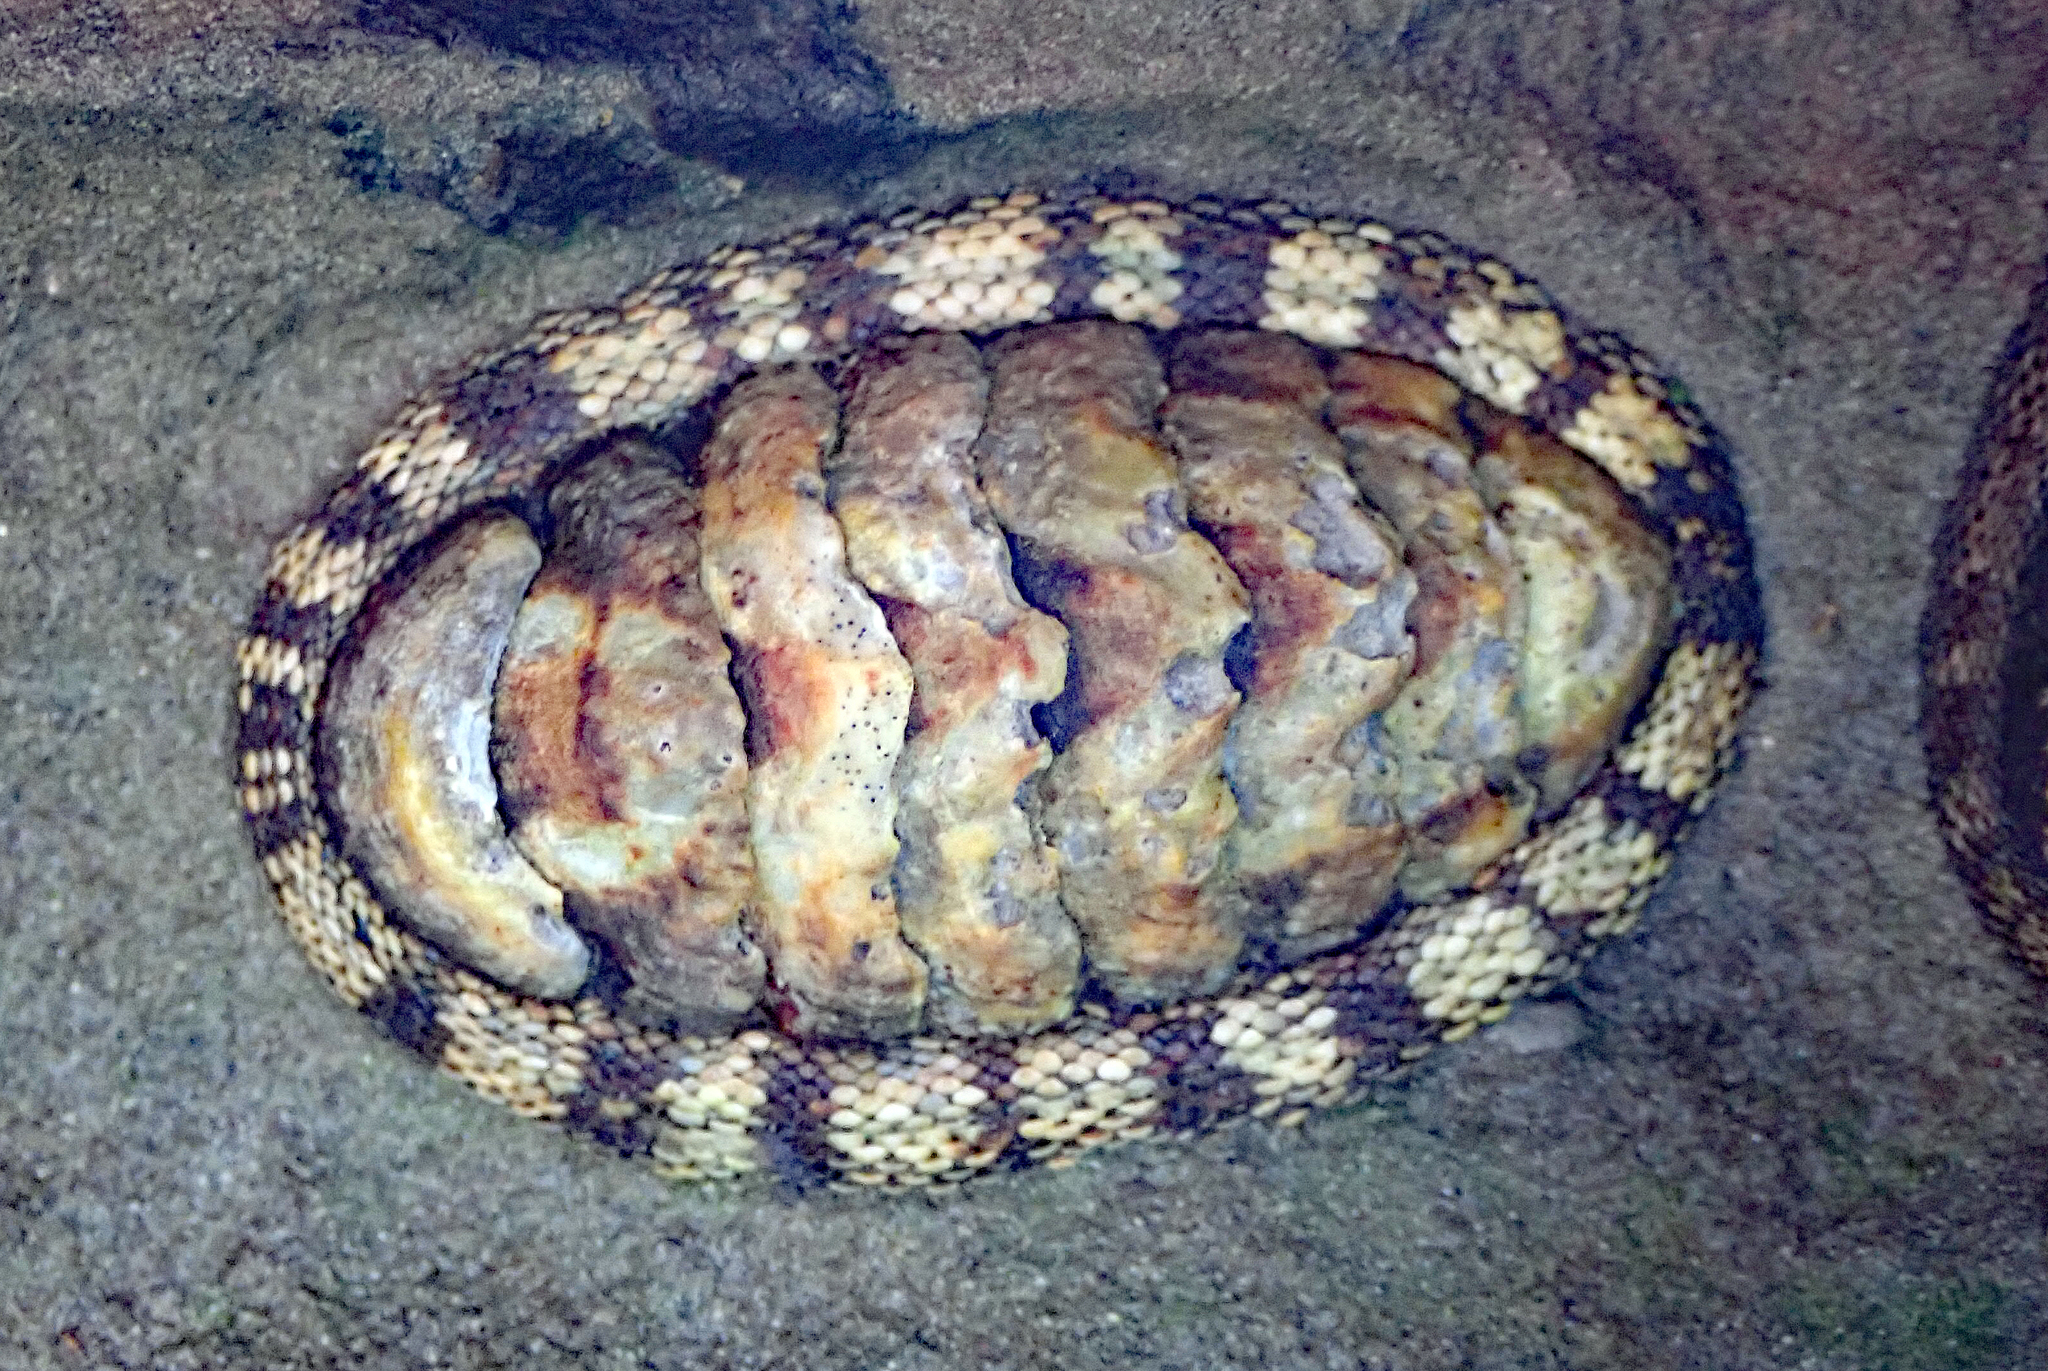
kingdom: Animalia
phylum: Mollusca
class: Polyplacophora
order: Chitonida
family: Chitonidae
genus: Sypharochiton
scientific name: Sypharochiton pelliserpentis
